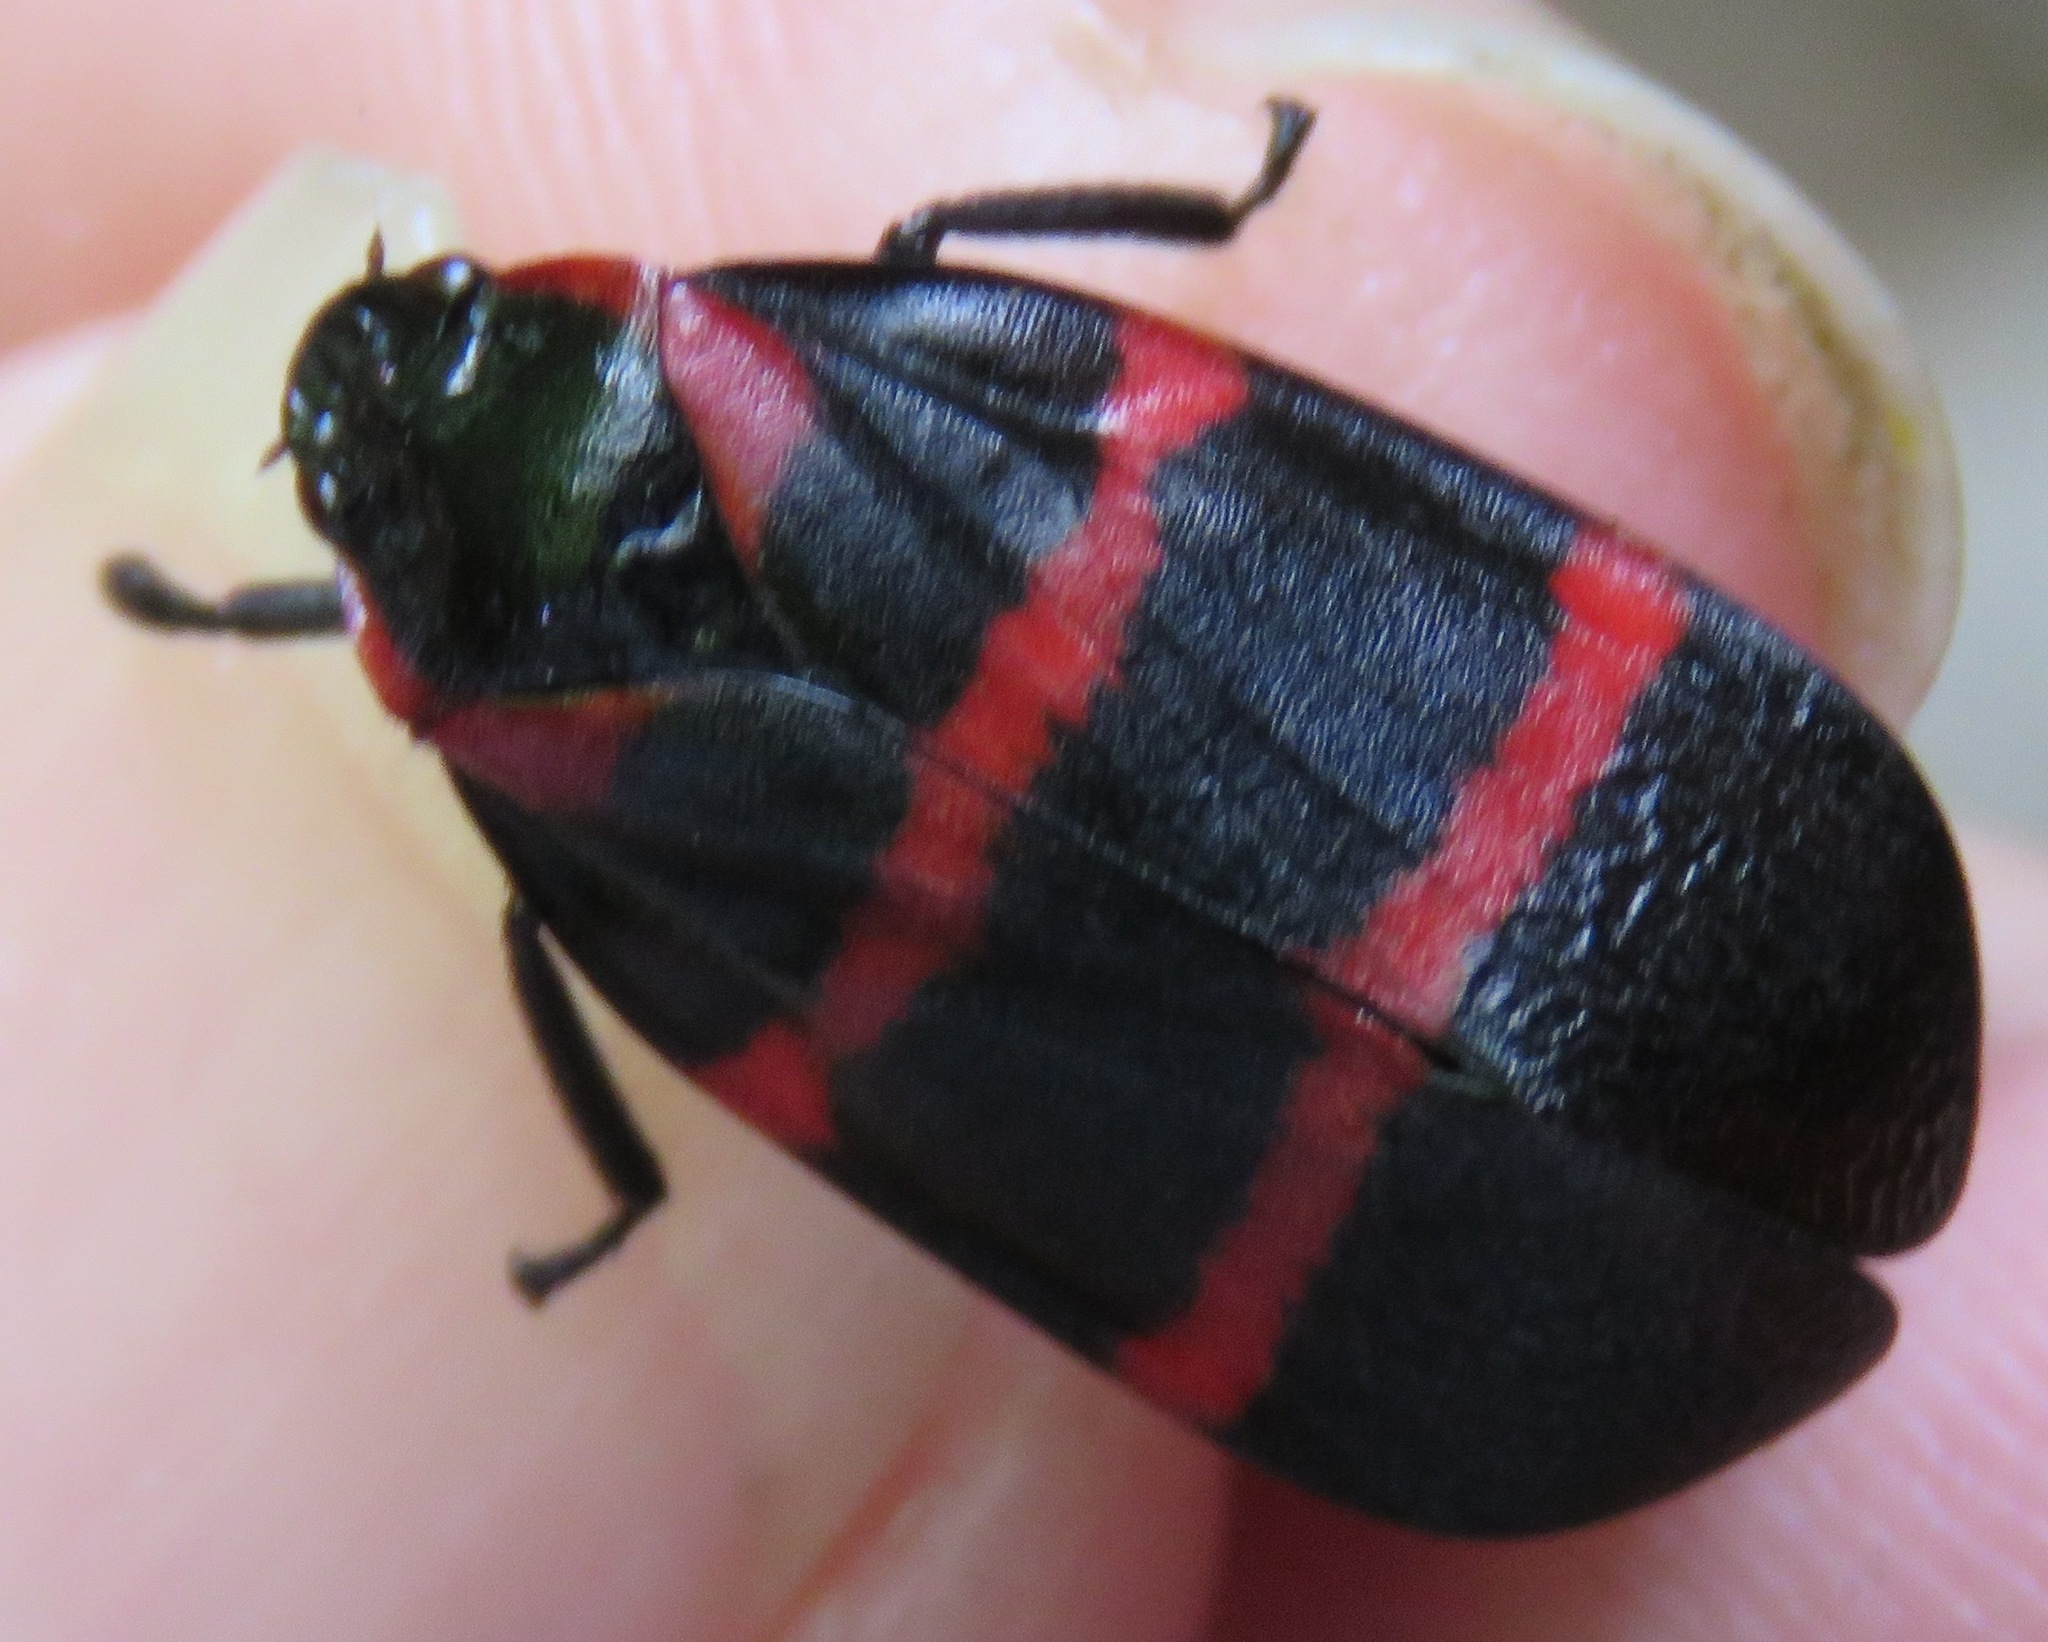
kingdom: Animalia
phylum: Arthropoda
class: Insecta
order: Hemiptera
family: Cercopidae
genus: Huaina
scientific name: Huaina inca
